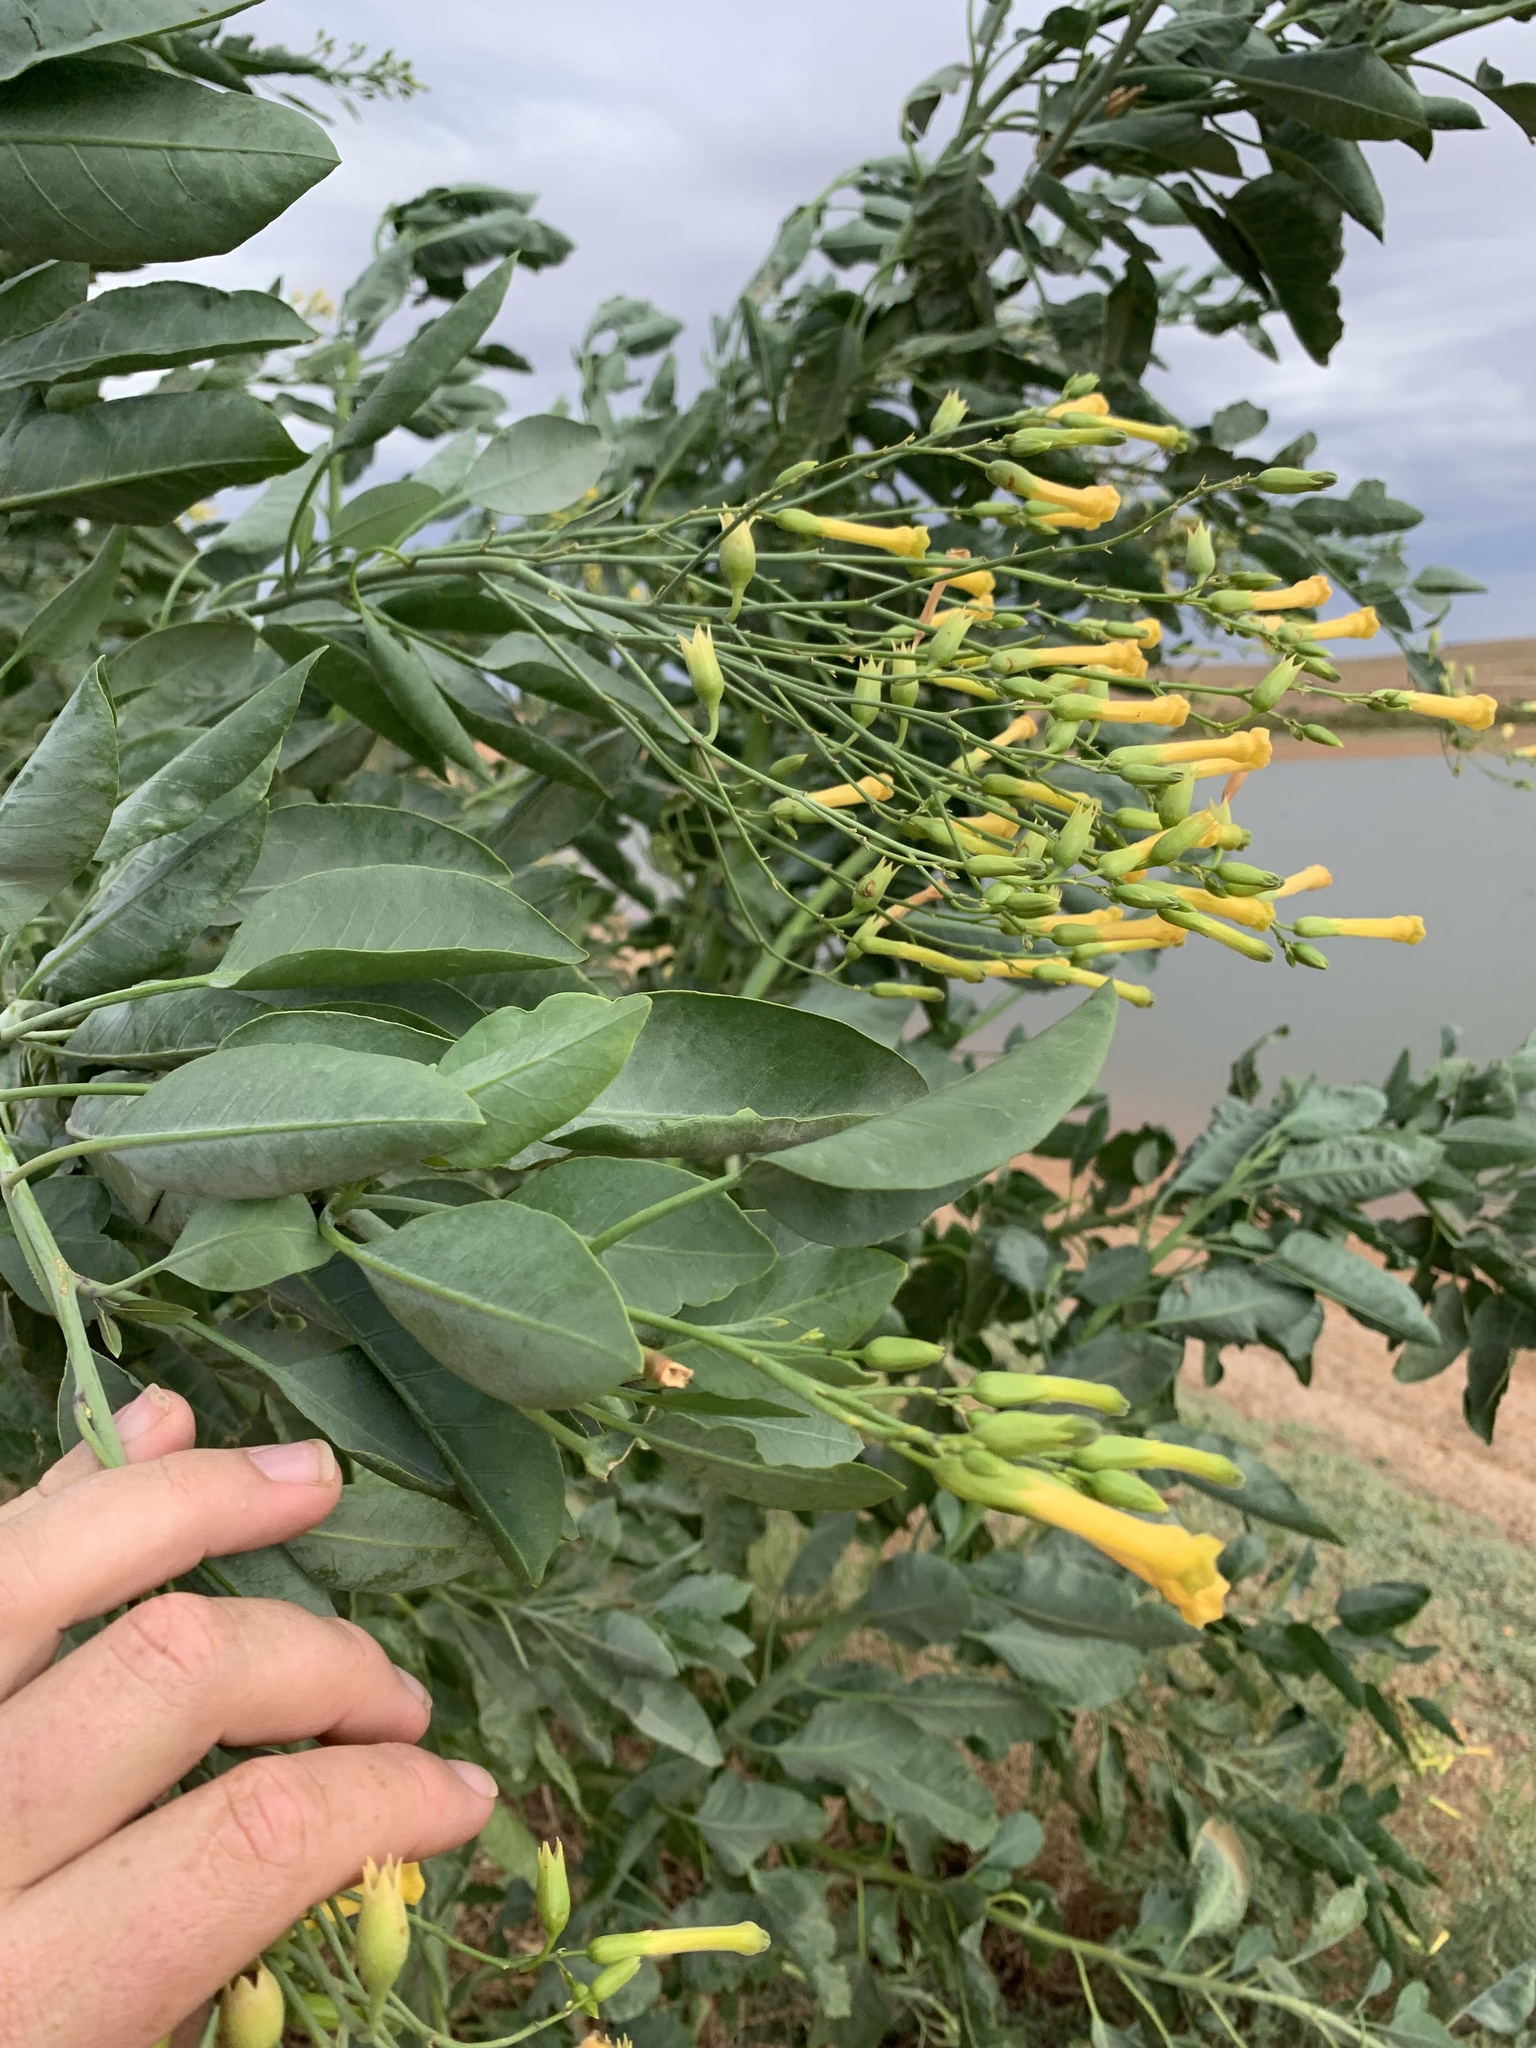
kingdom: Plantae
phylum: Tracheophyta
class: Magnoliopsida
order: Solanales
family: Solanaceae
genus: Nicotiana
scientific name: Nicotiana glauca
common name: Tree tobacco
